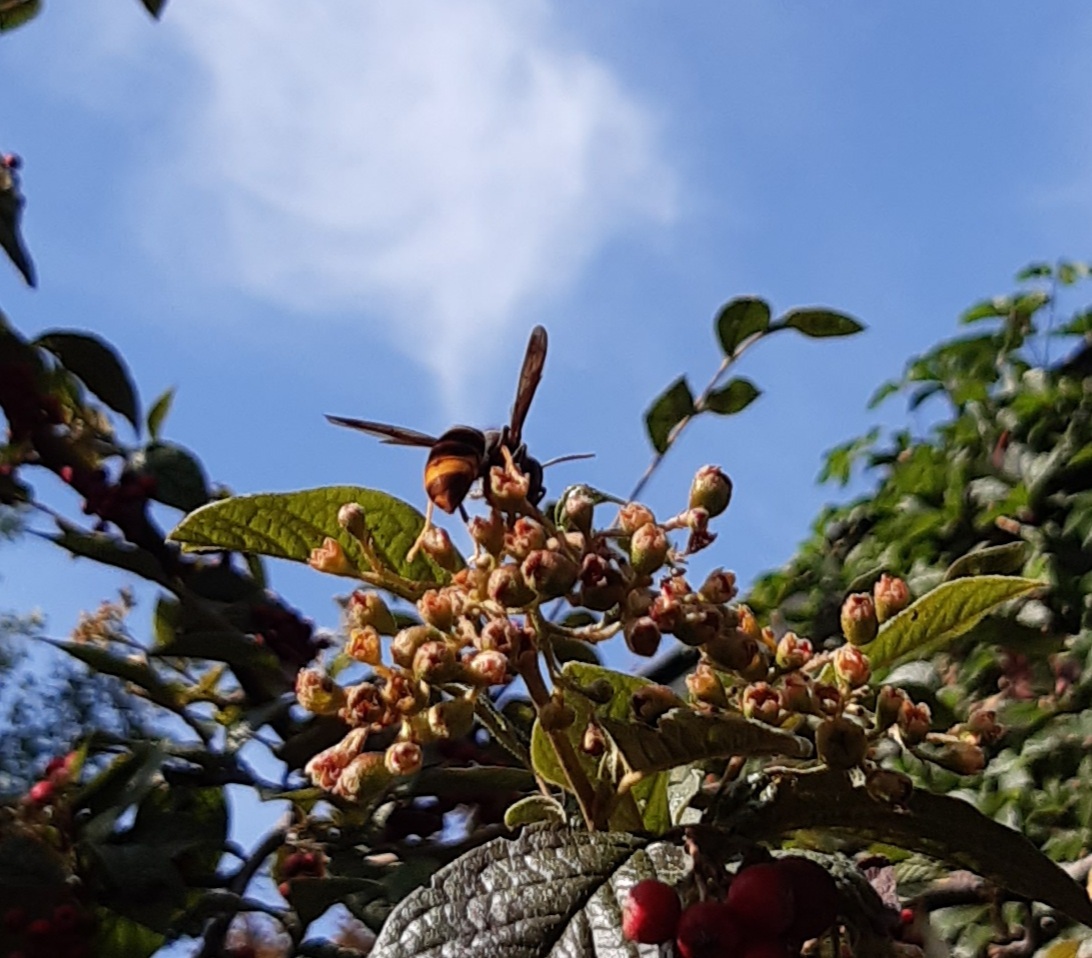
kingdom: Animalia
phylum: Arthropoda
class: Insecta
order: Hymenoptera
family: Vespidae
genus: Vespa
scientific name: Vespa velutina
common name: Asian hornet
